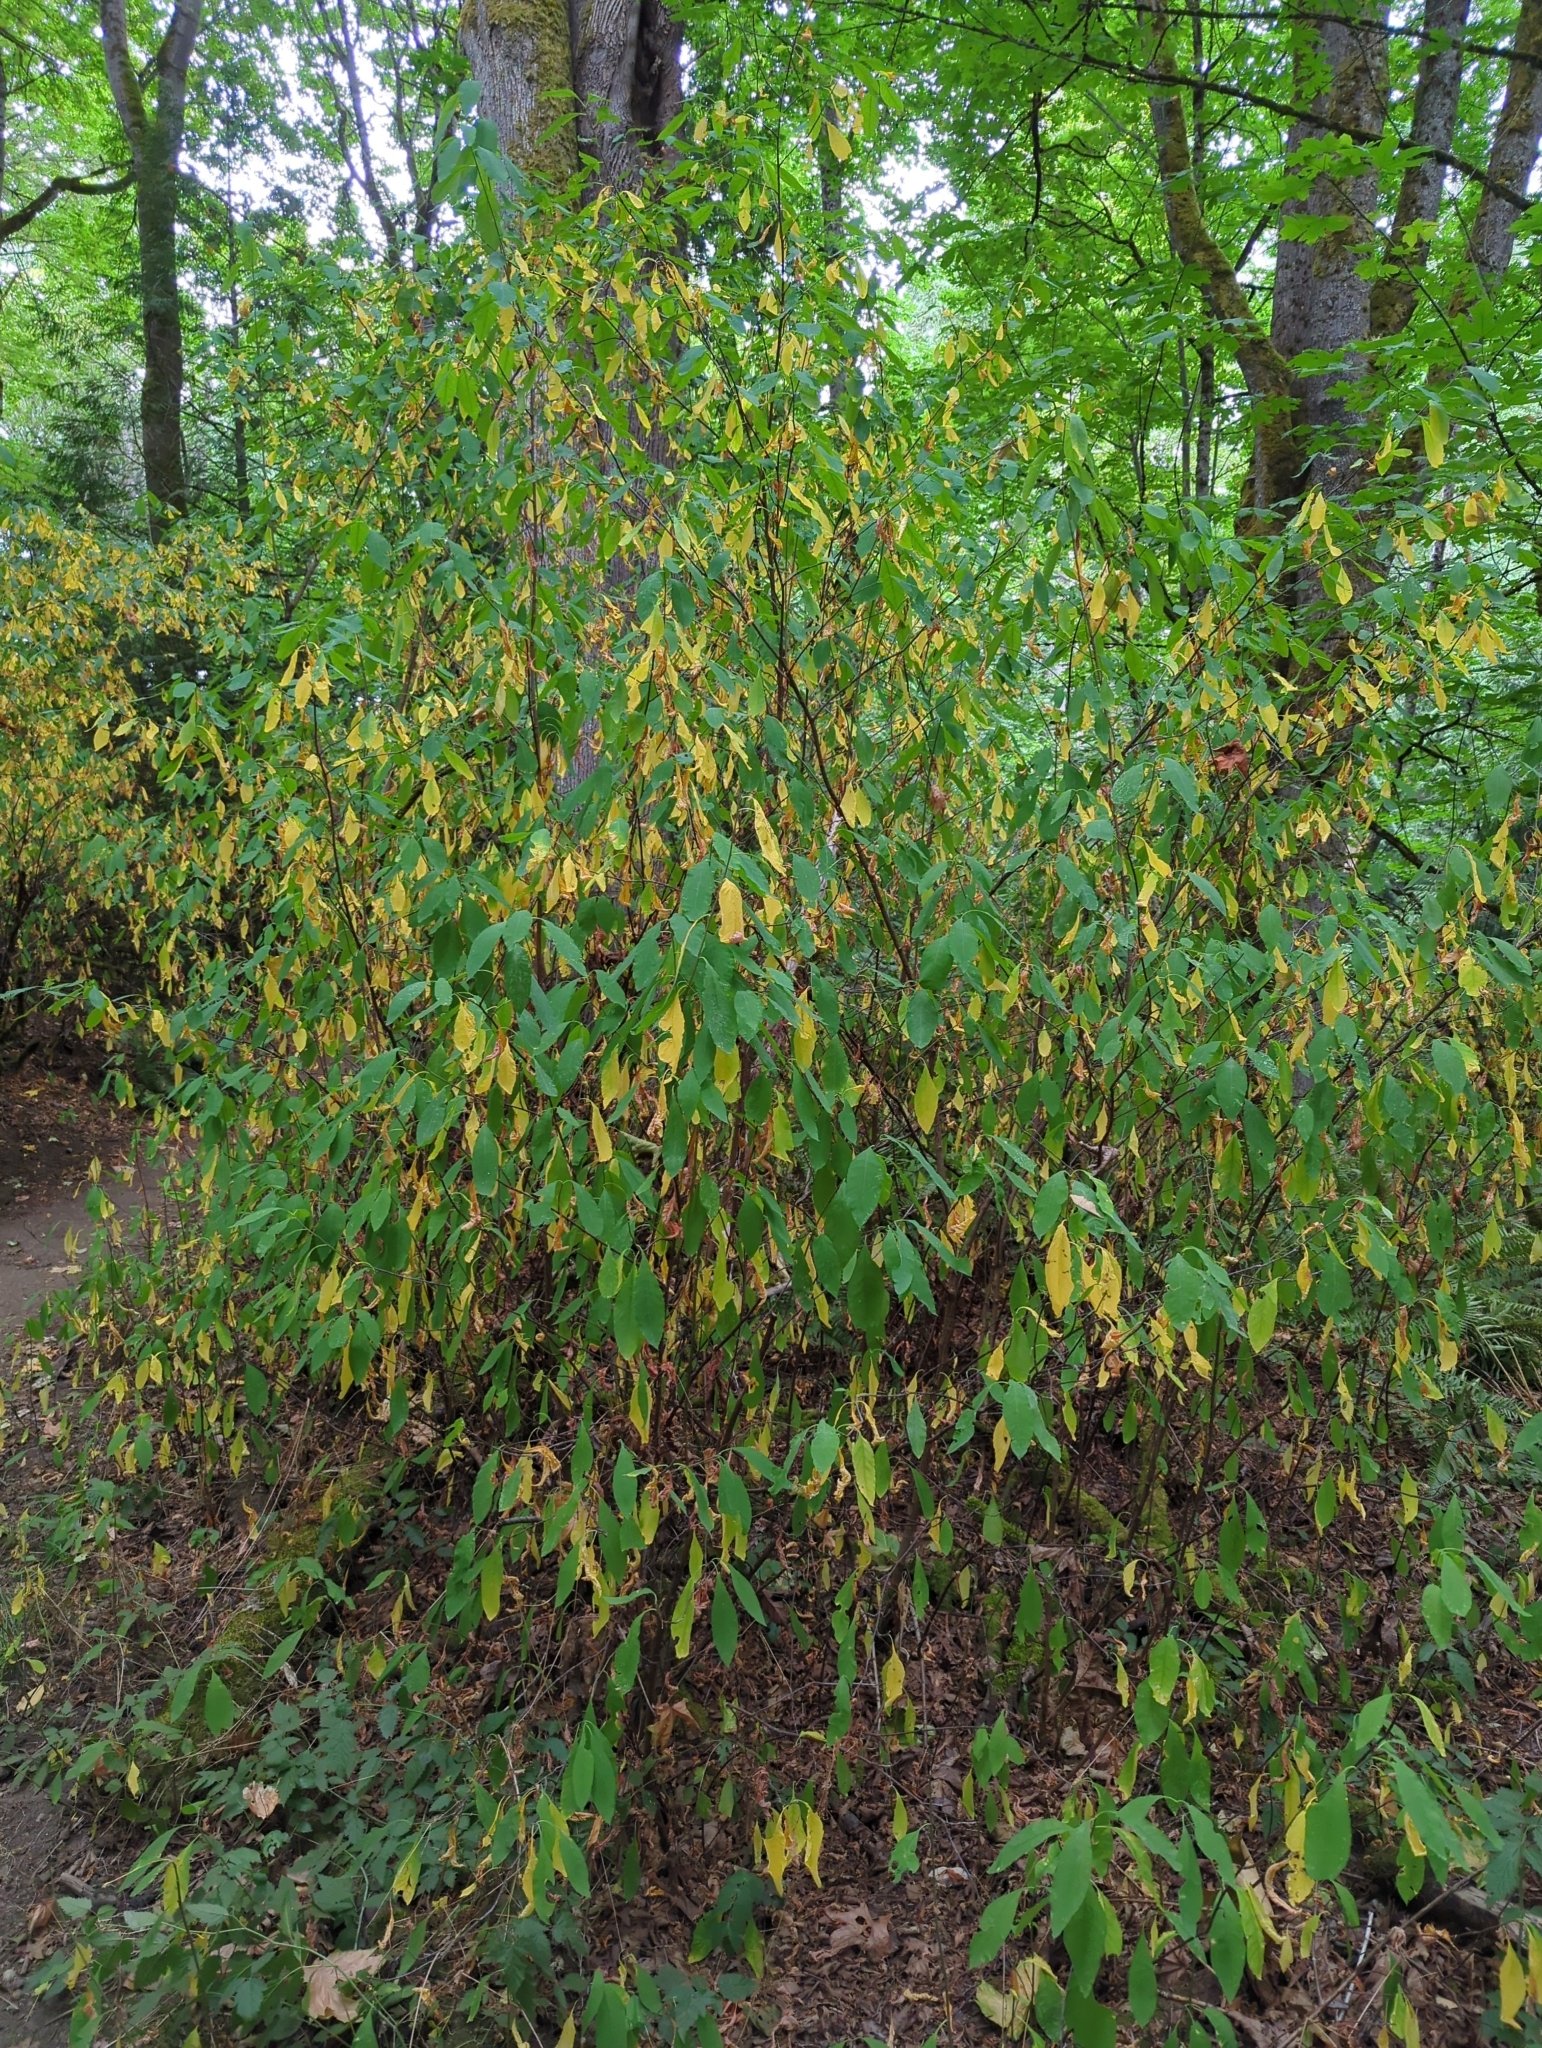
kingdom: Plantae
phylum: Tracheophyta
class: Magnoliopsida
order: Rosales
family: Rosaceae
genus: Oemleria
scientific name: Oemleria cerasiformis
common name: Osoberry
